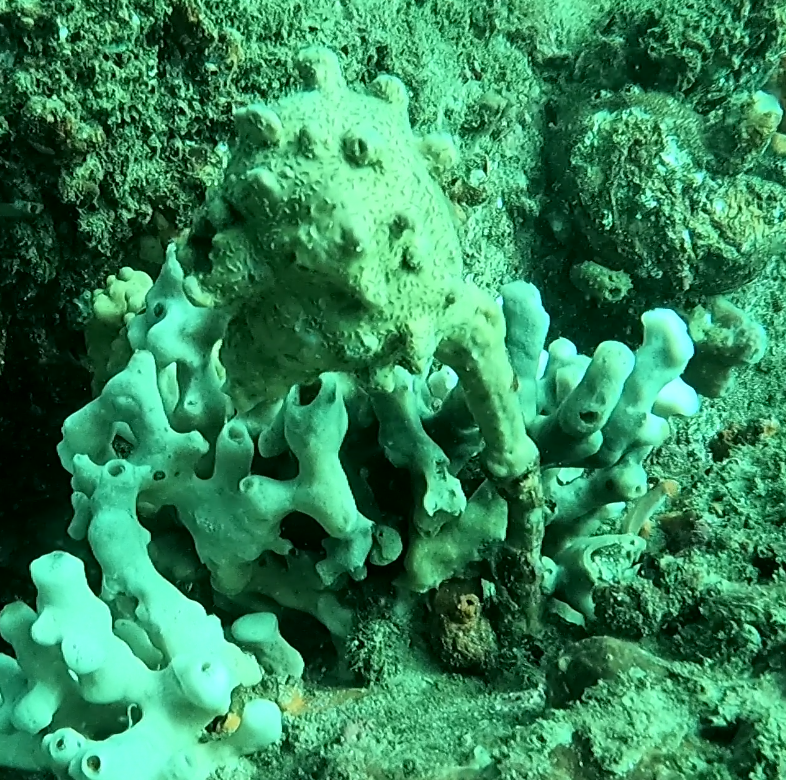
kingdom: Animalia
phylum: Chordata
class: Ascidiacea
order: Stolidobranchia
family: Pyuridae
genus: Pyura
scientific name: Pyura spinifera
